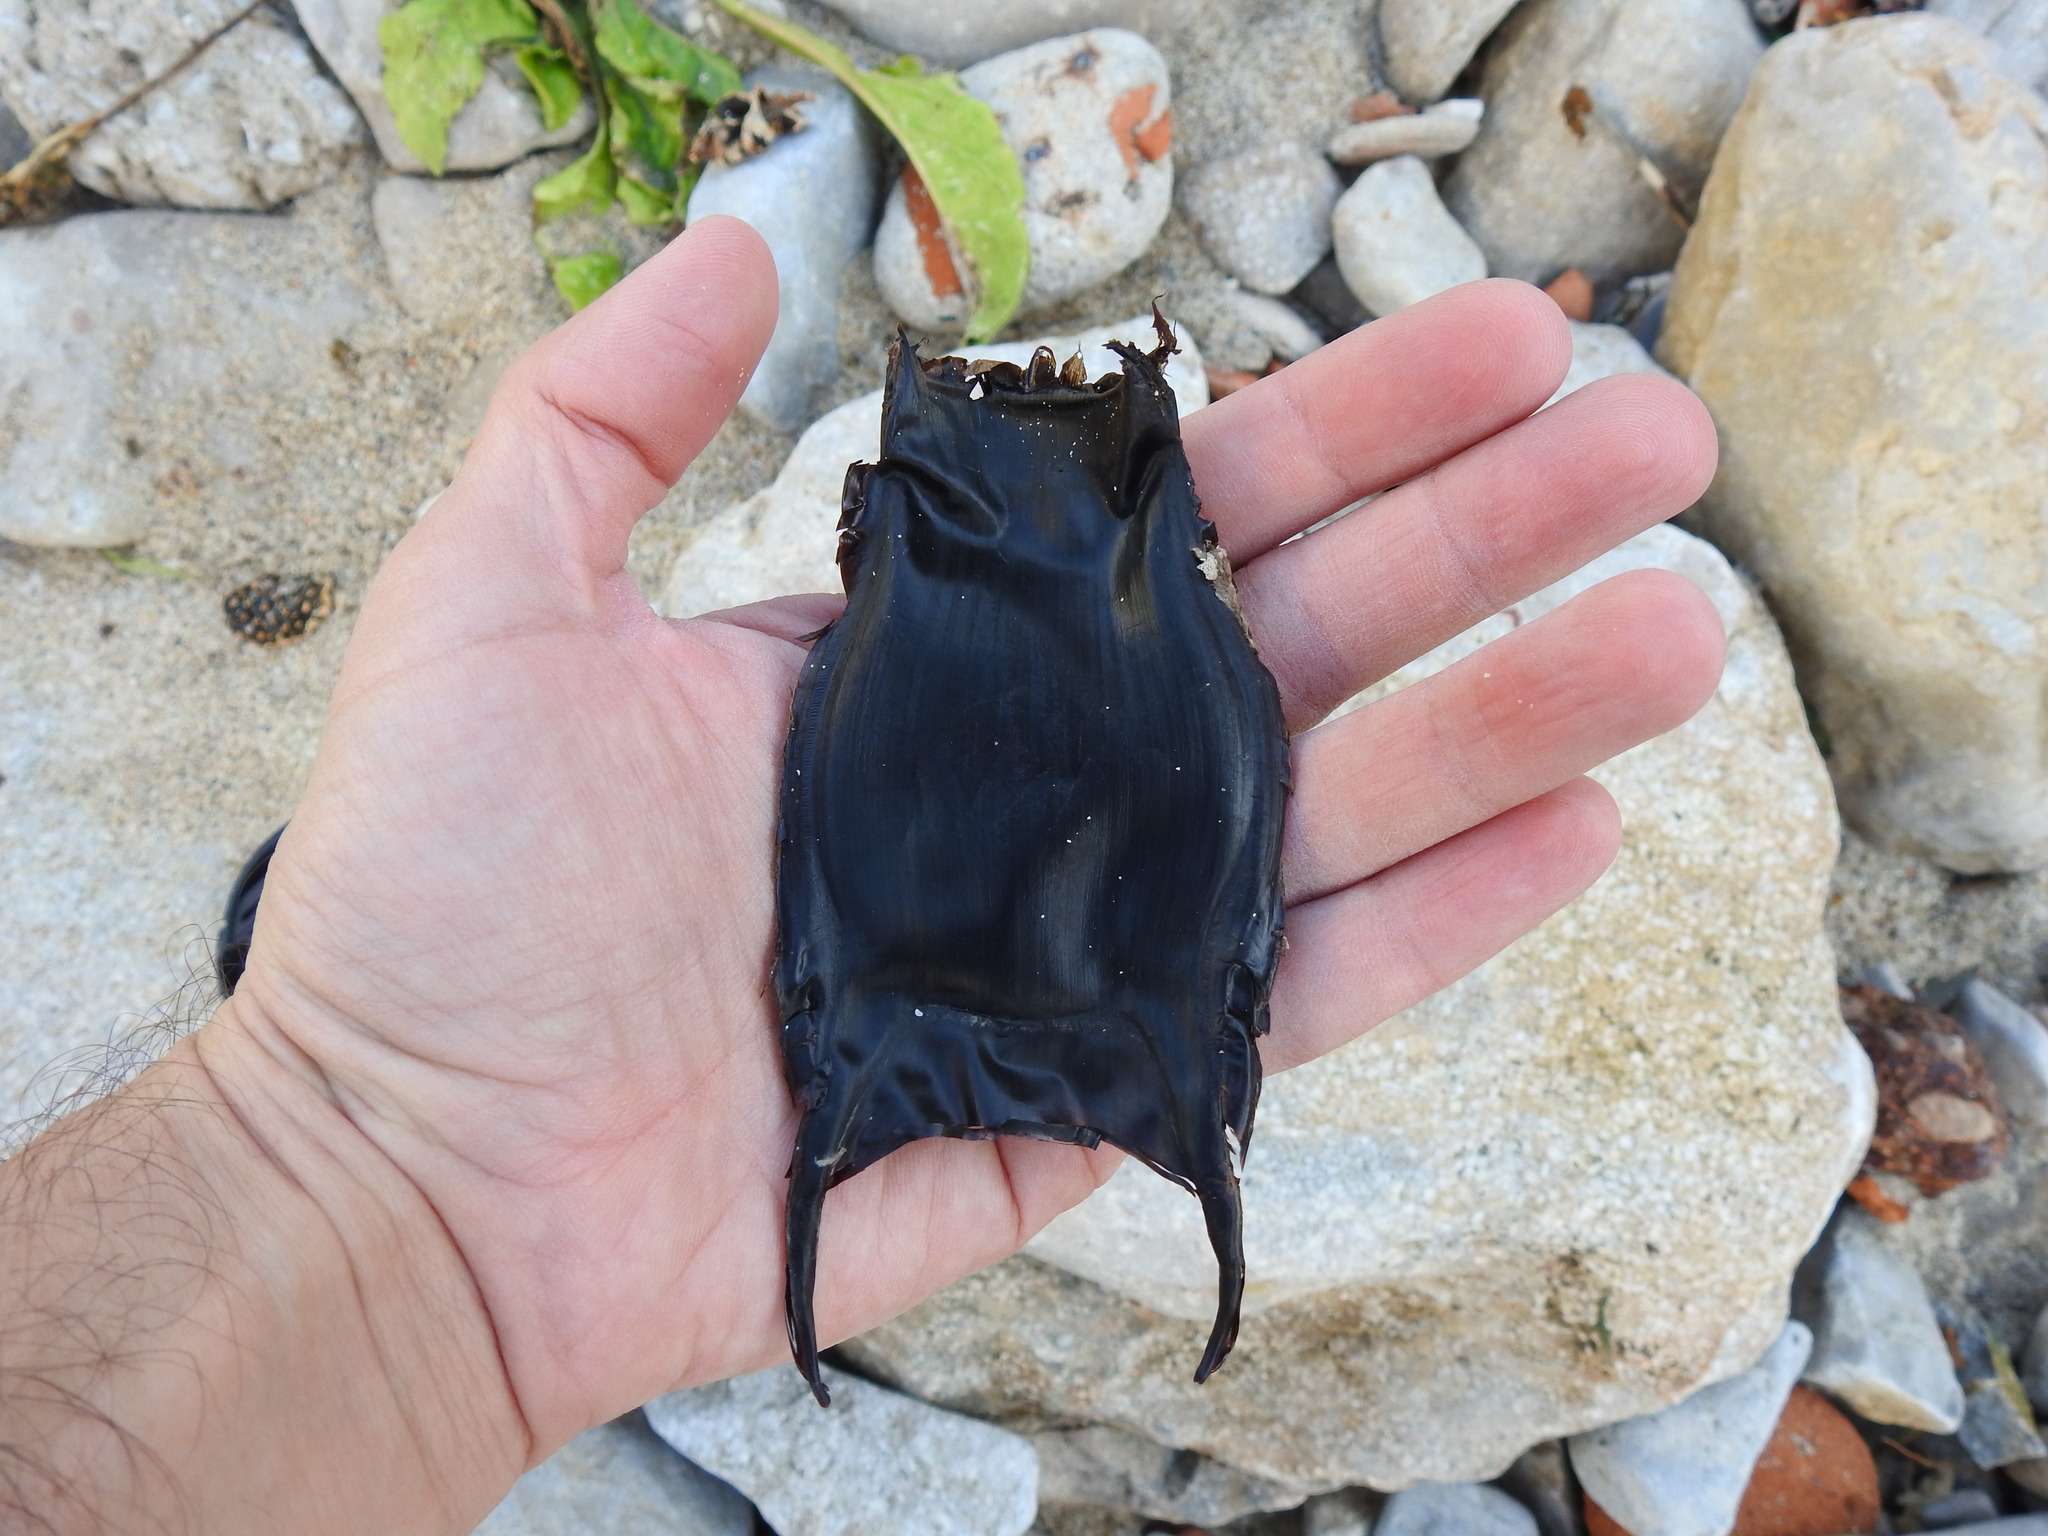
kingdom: Animalia
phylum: Chordata
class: Elasmobranchii
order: Rajiformes
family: Rajidae
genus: Raja
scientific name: Raja brachyura
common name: Blonde ray
